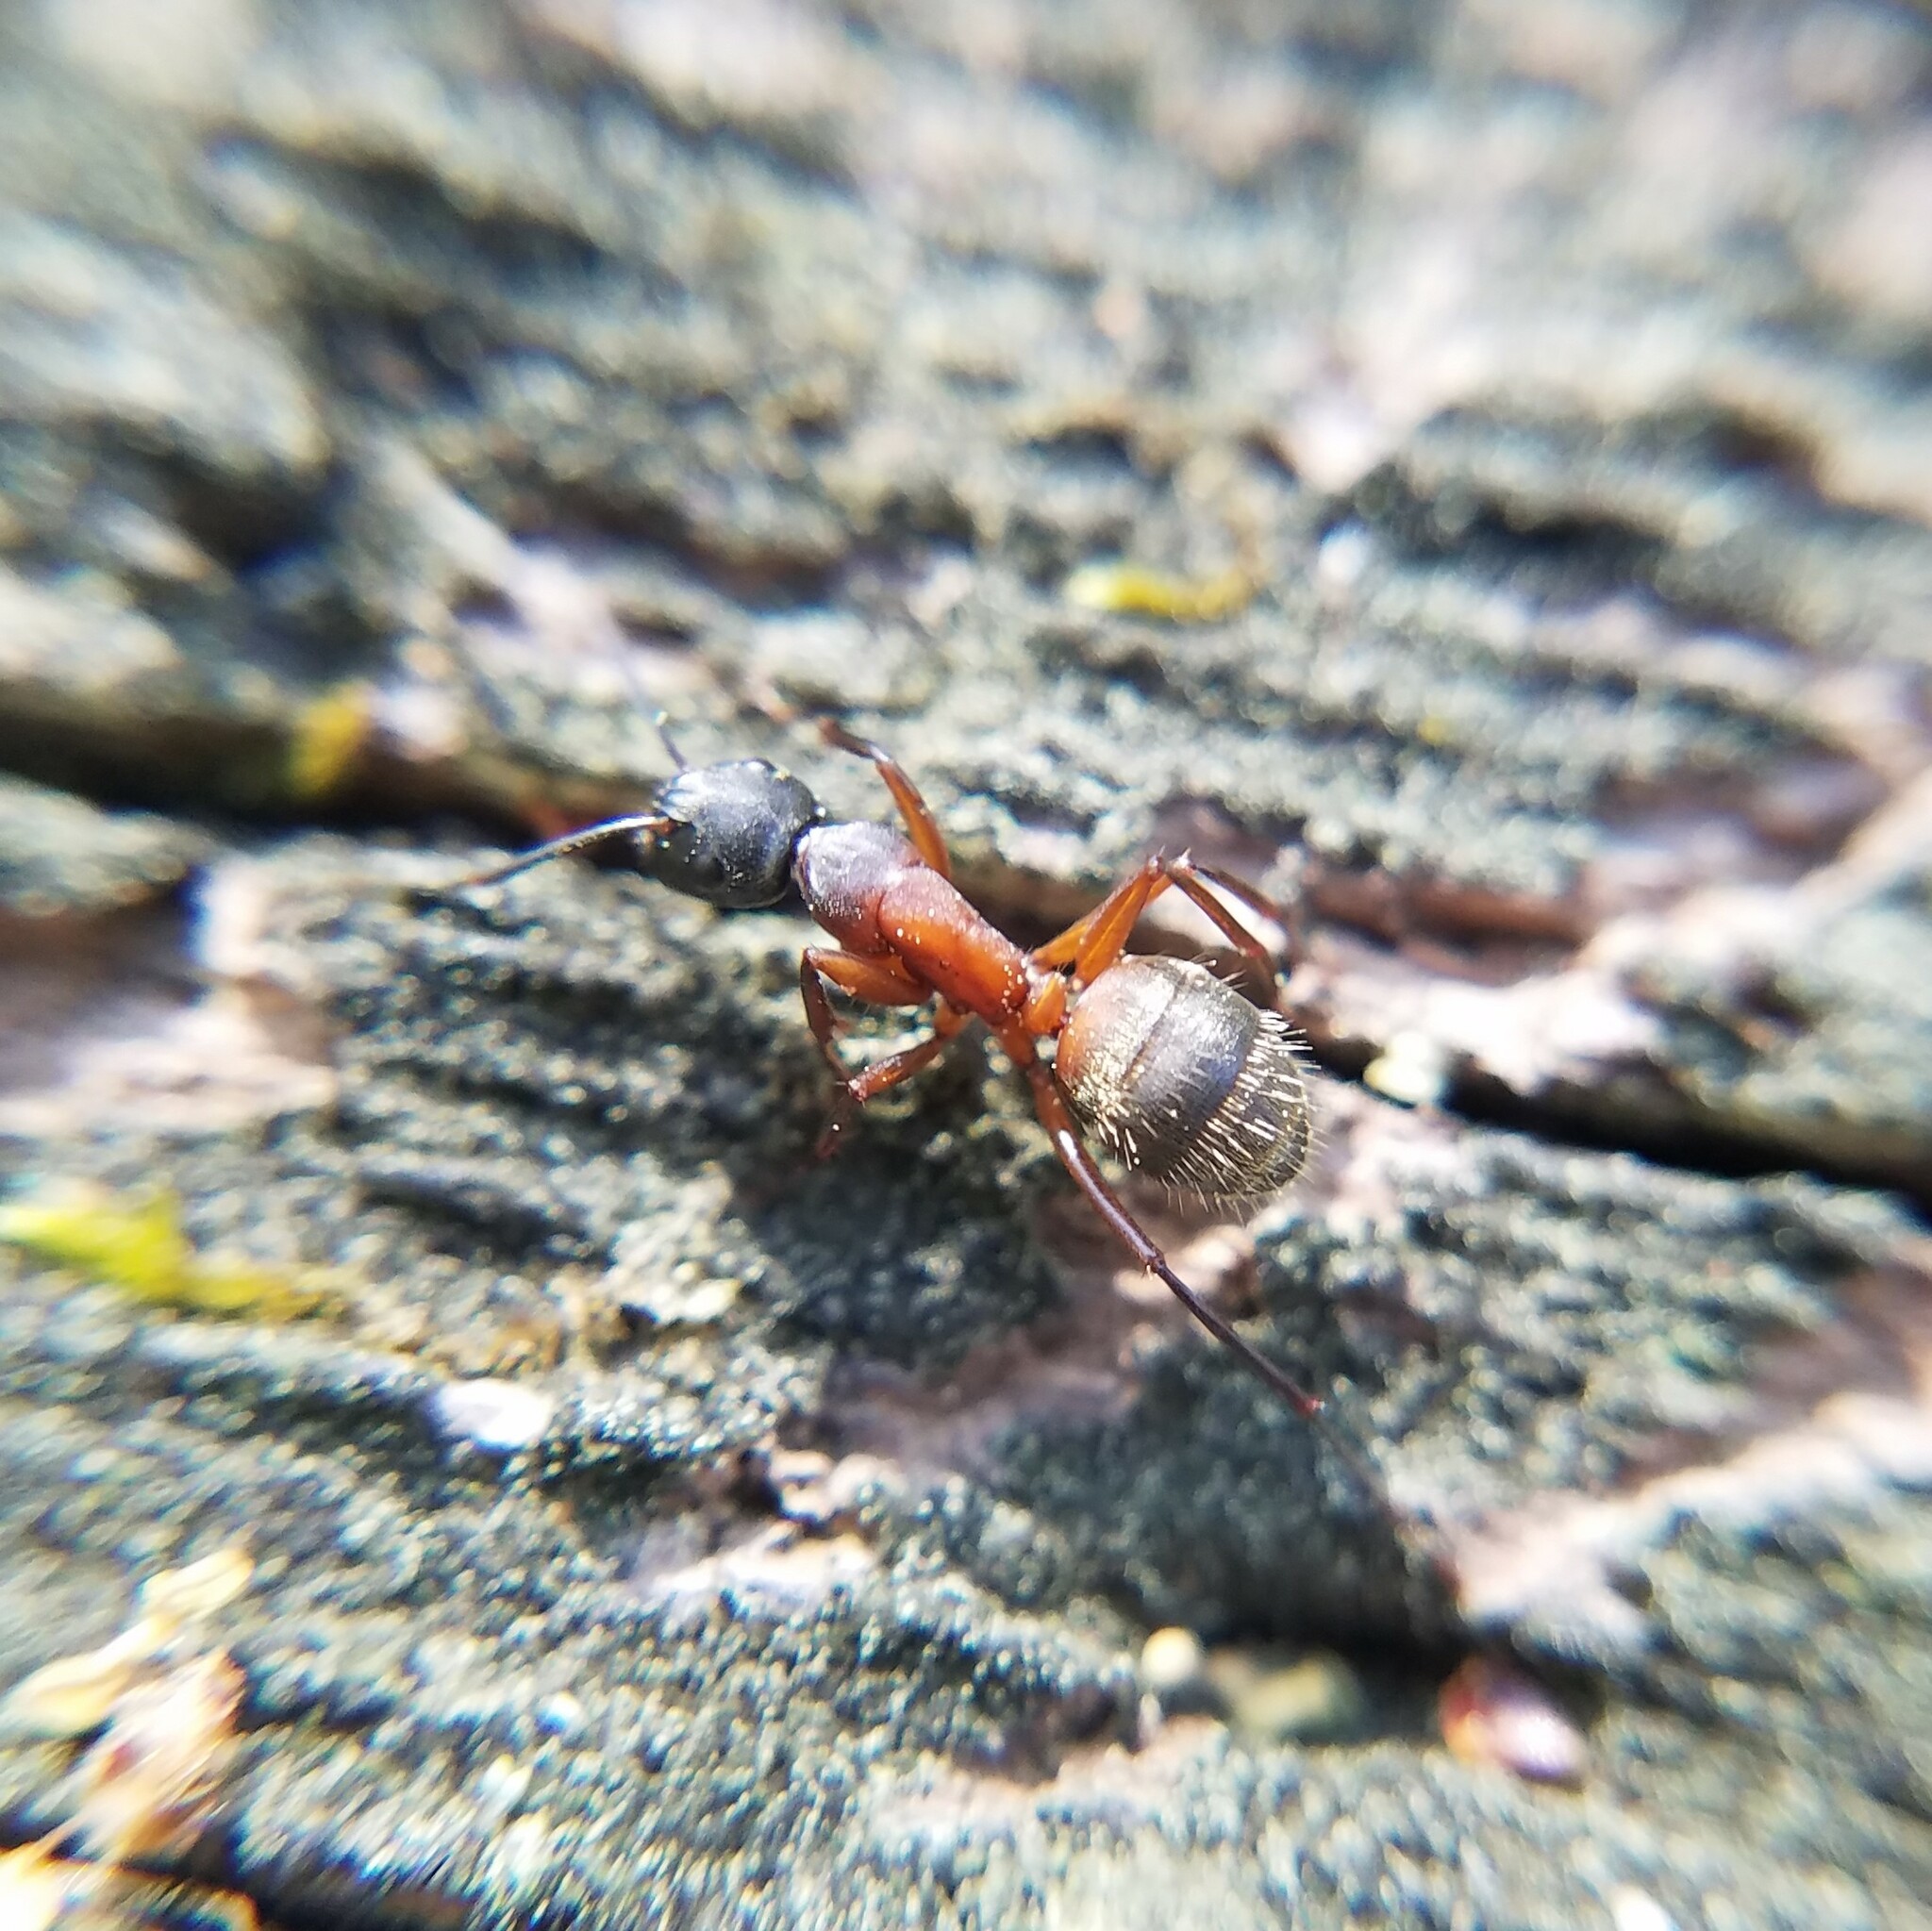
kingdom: Animalia
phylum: Arthropoda
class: Insecta
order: Hymenoptera
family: Formicidae
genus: Camponotus
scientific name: Camponotus chromaiodes
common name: Red carpenter ant
